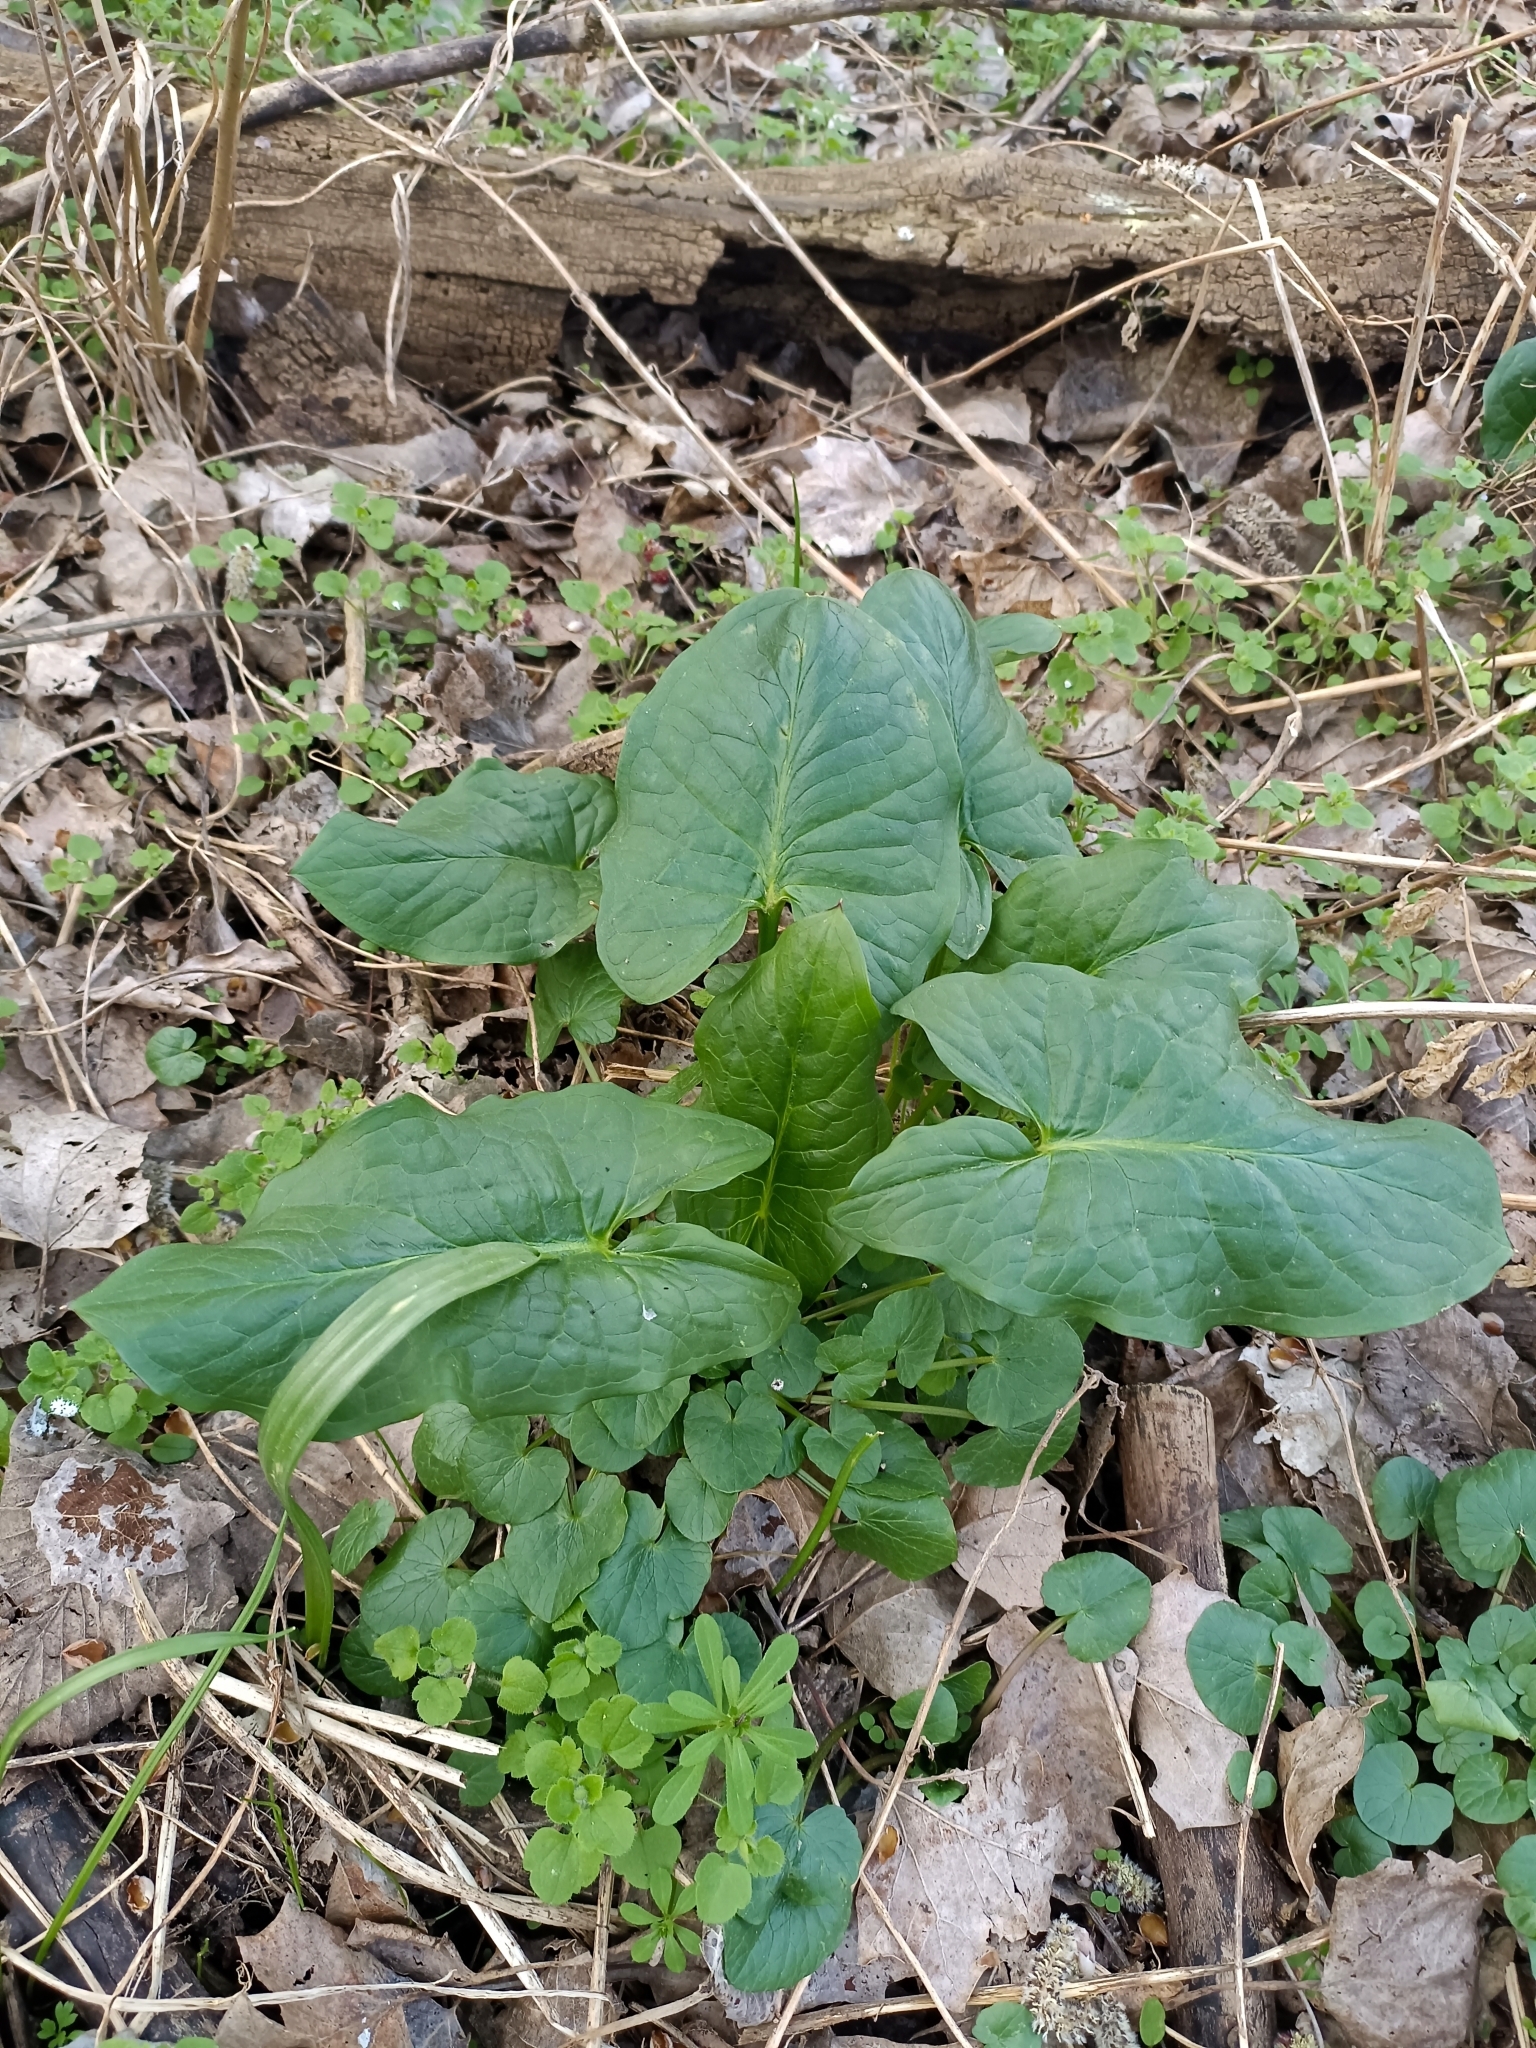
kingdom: Plantae
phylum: Tracheophyta
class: Liliopsida
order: Alismatales
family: Araceae
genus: Arum
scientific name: Arum cylindraceum
